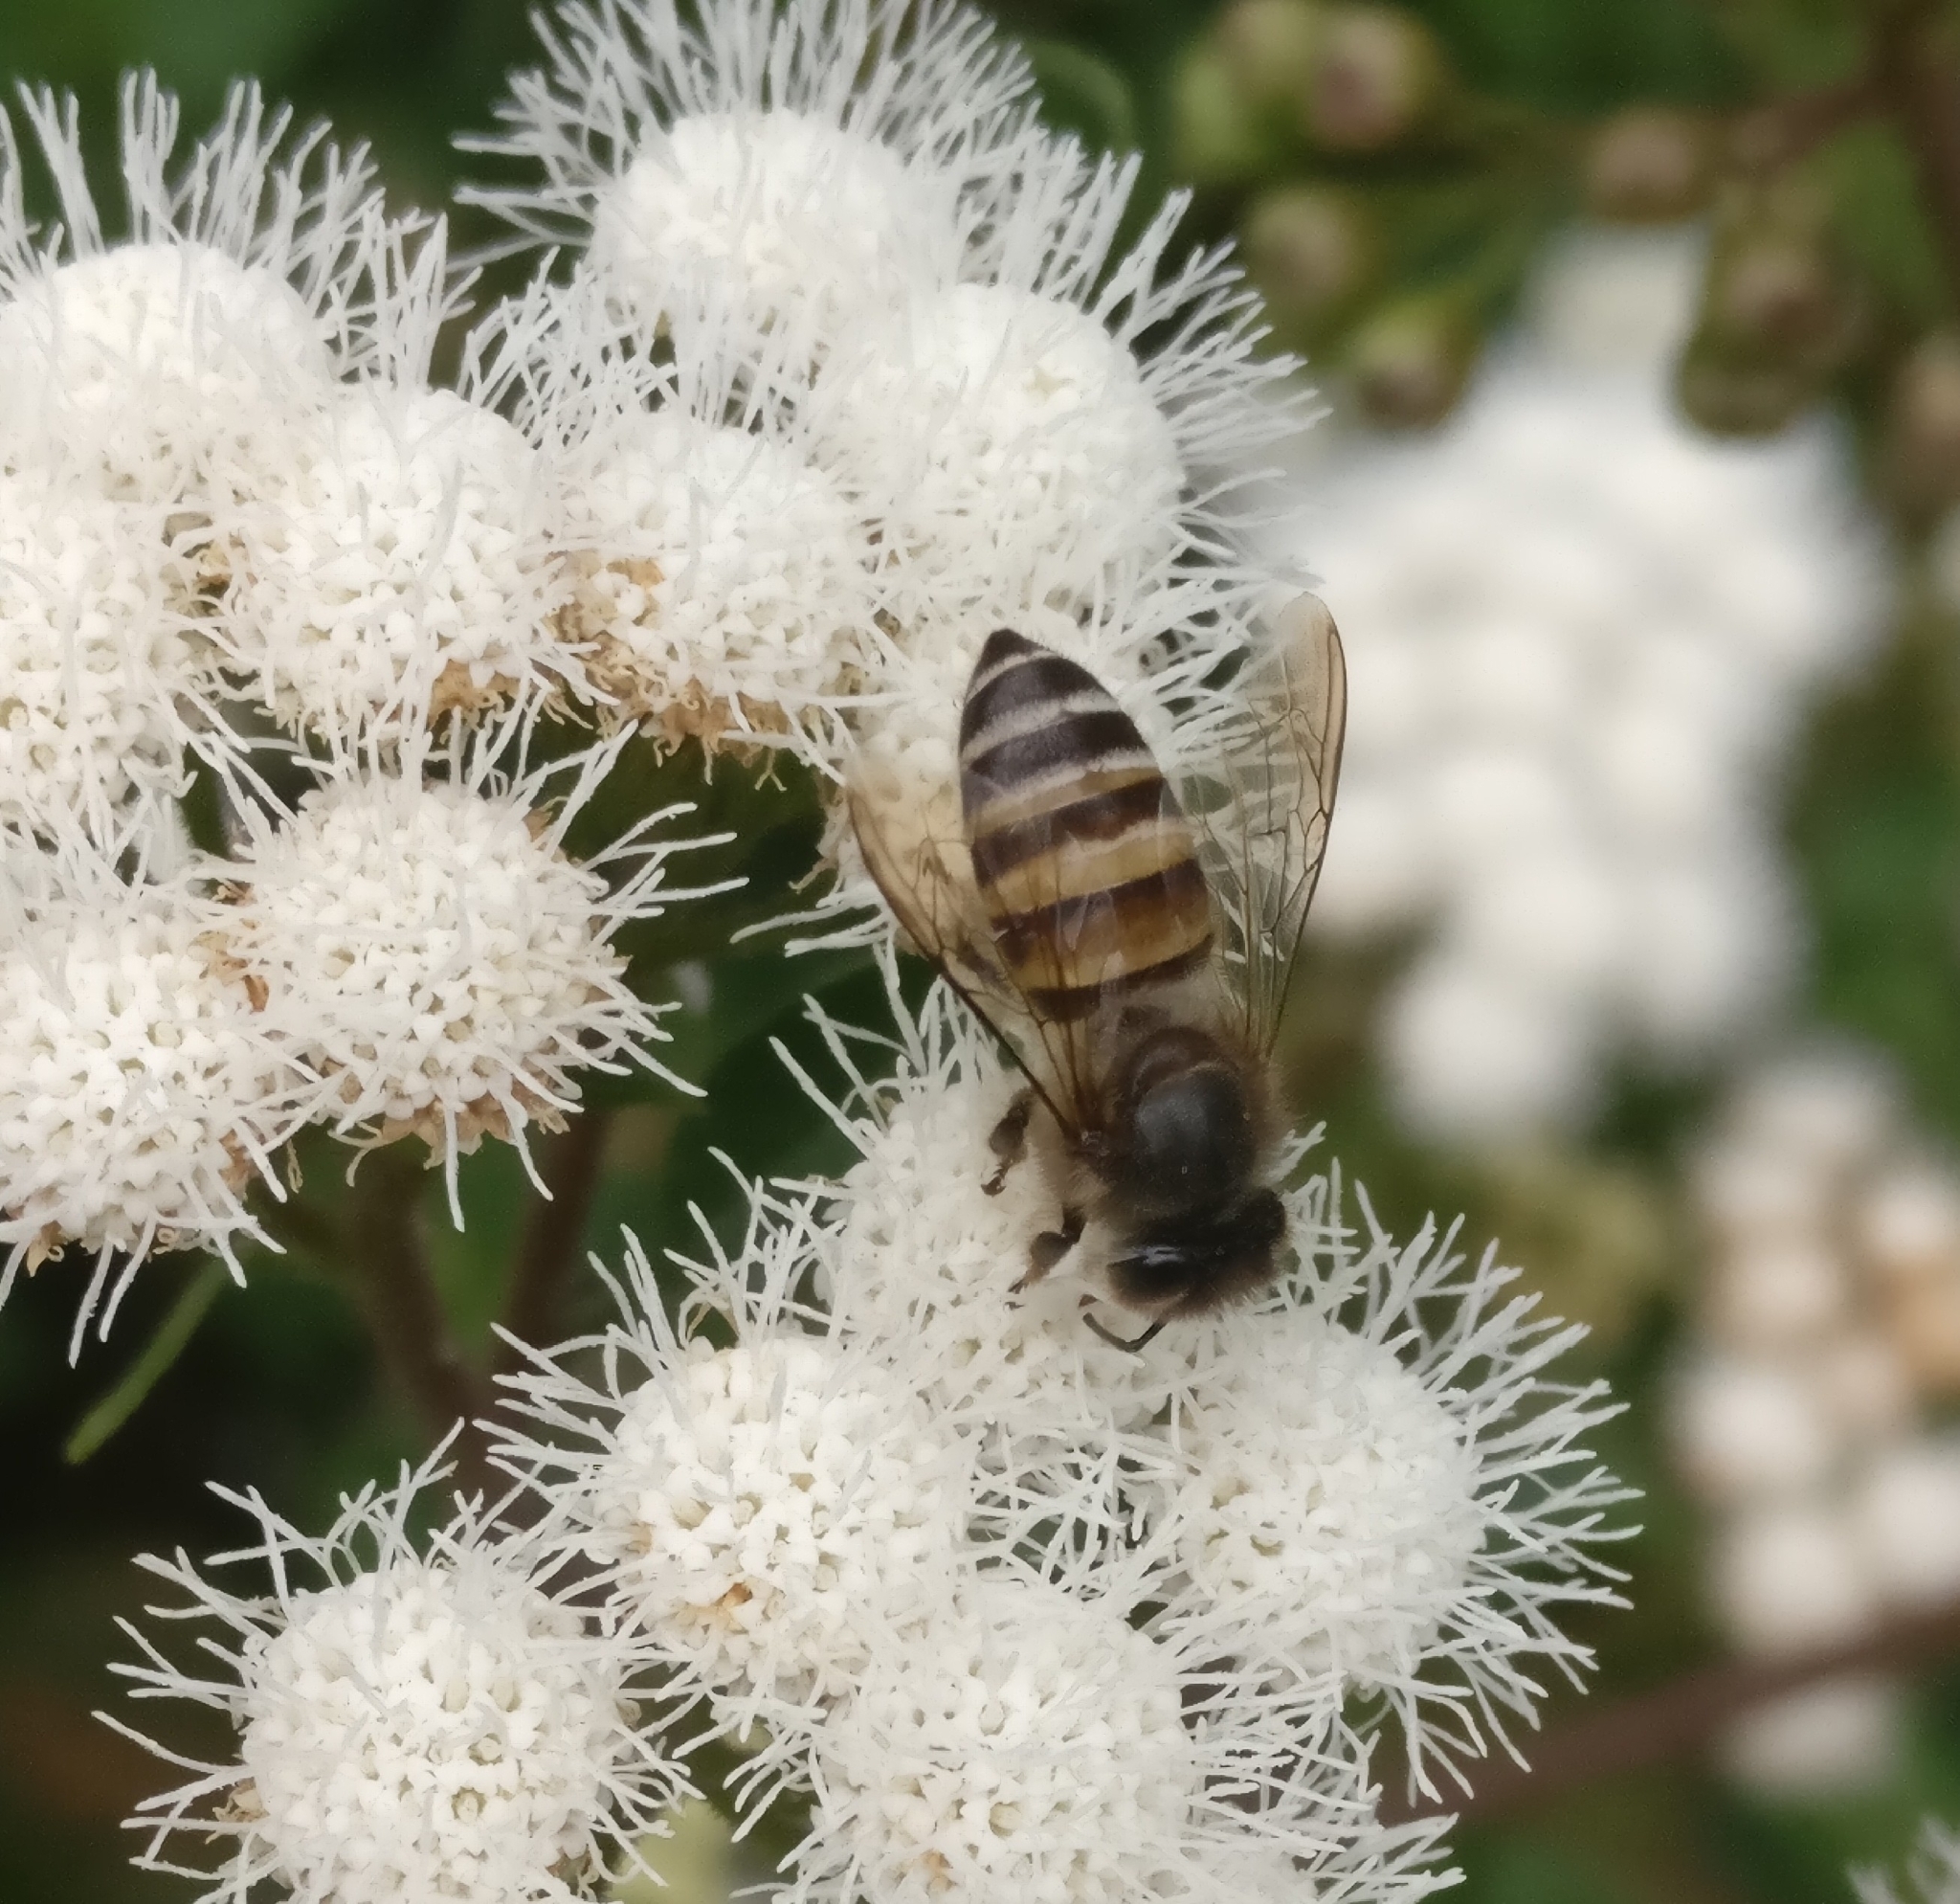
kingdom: Animalia
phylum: Arthropoda
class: Insecta
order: Hymenoptera
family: Apidae
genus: Apis
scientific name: Apis cerana
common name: Honey bee
